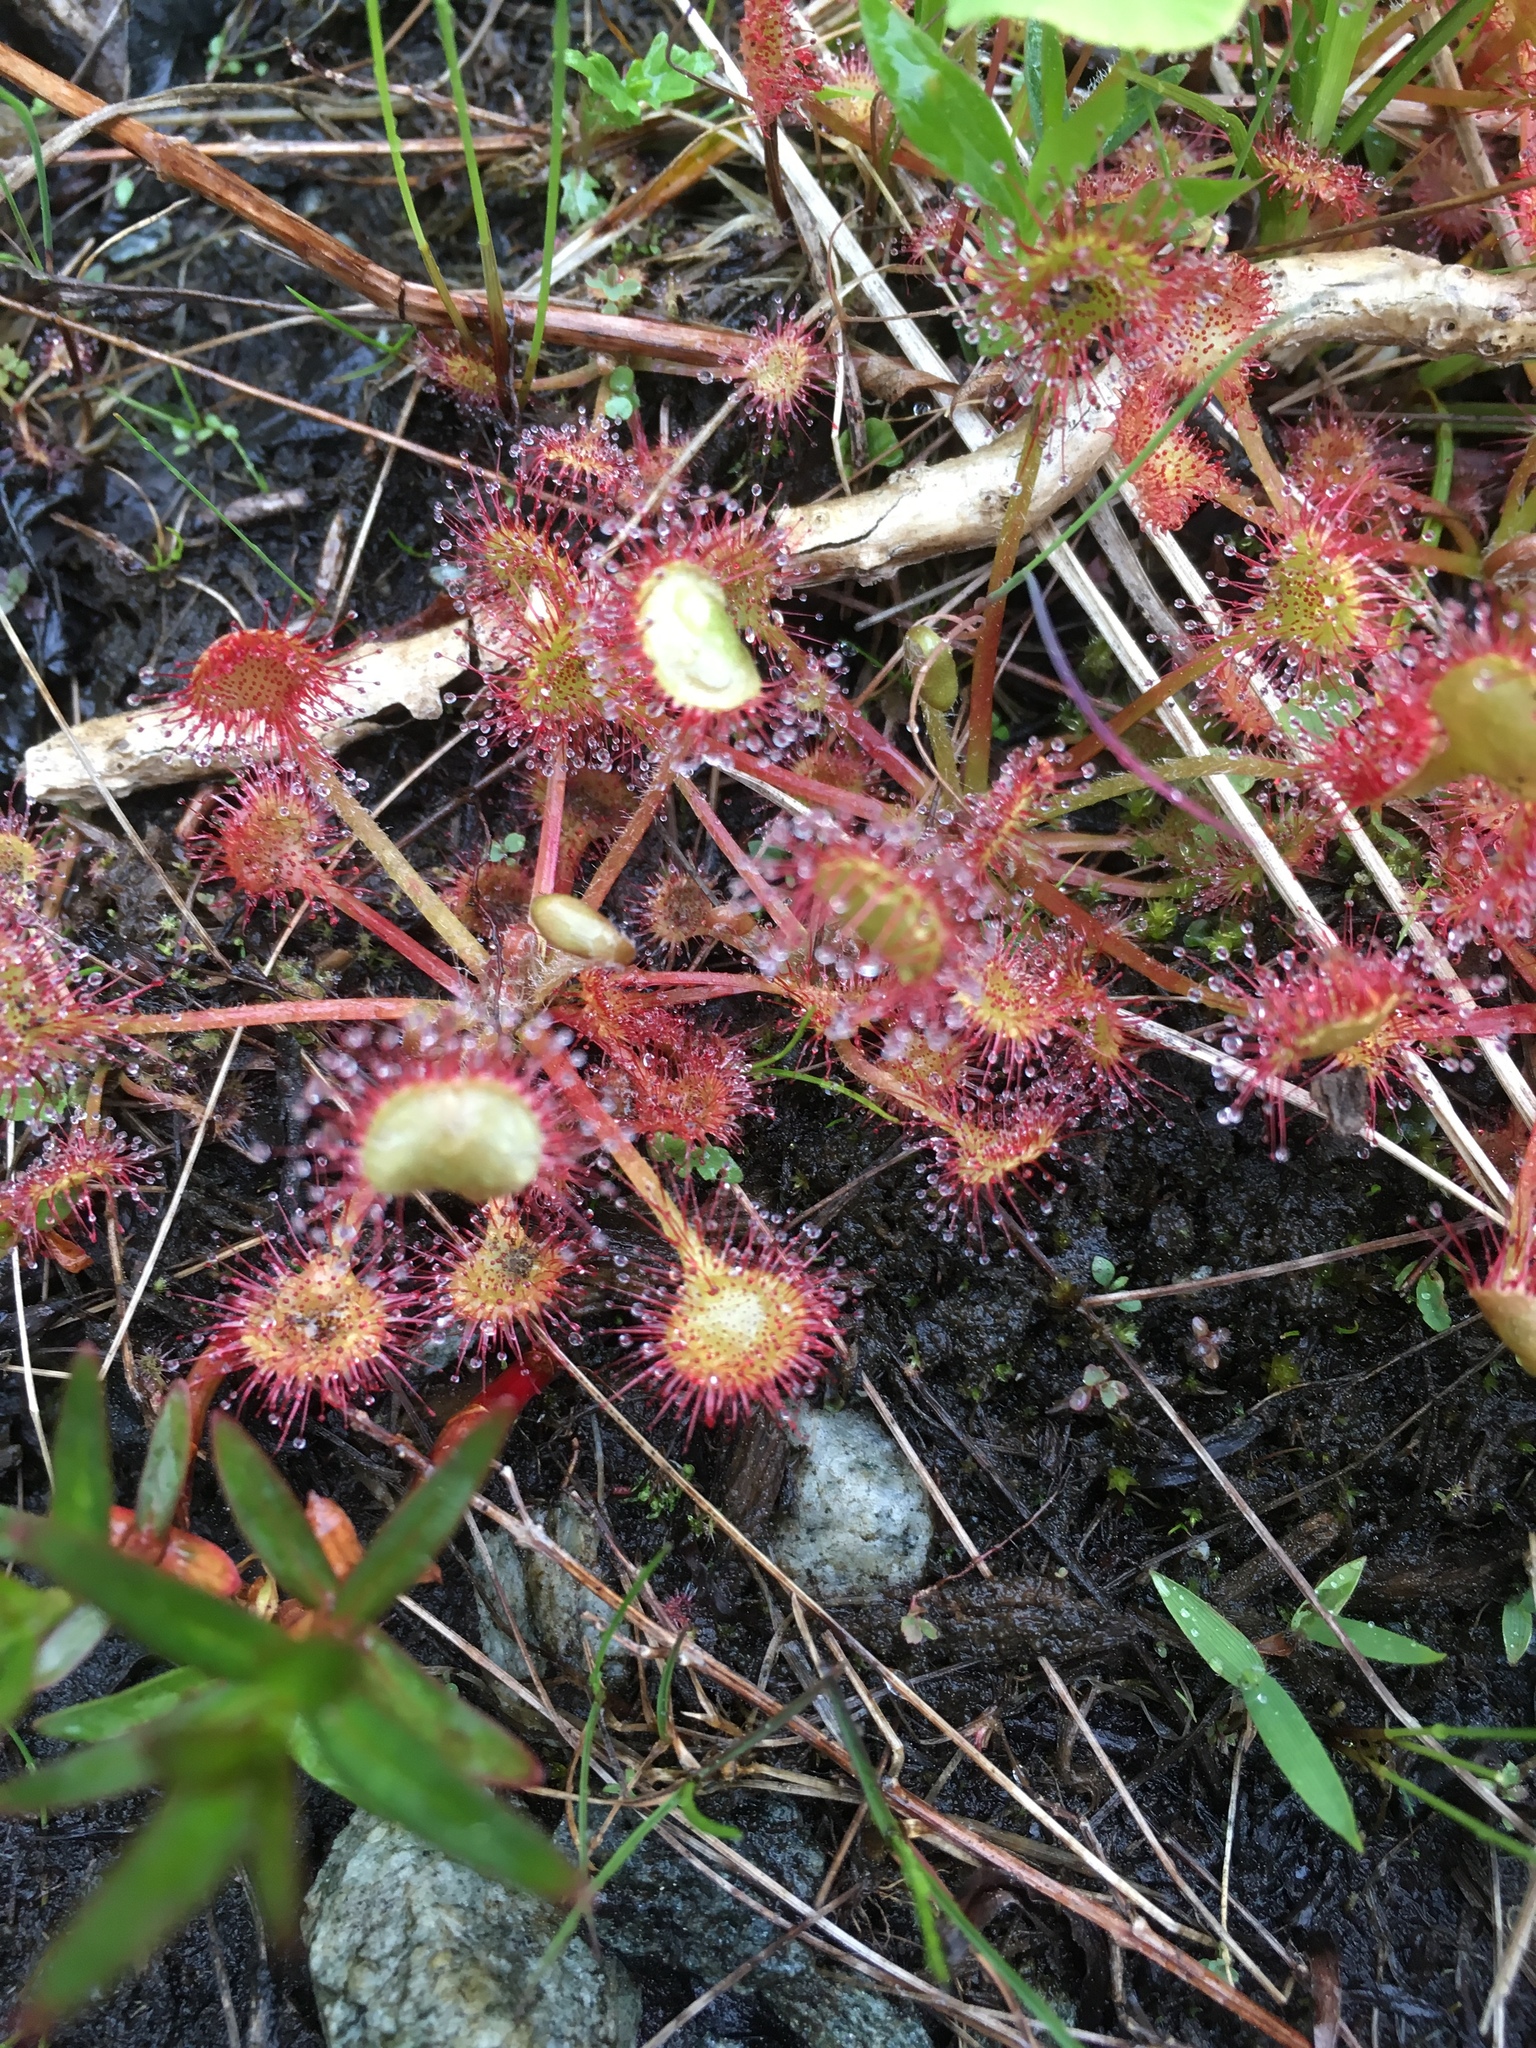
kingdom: Plantae
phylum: Tracheophyta
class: Magnoliopsida
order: Caryophyllales
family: Droseraceae
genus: Drosera
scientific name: Drosera rotundifolia
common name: Round-leaved sundew
